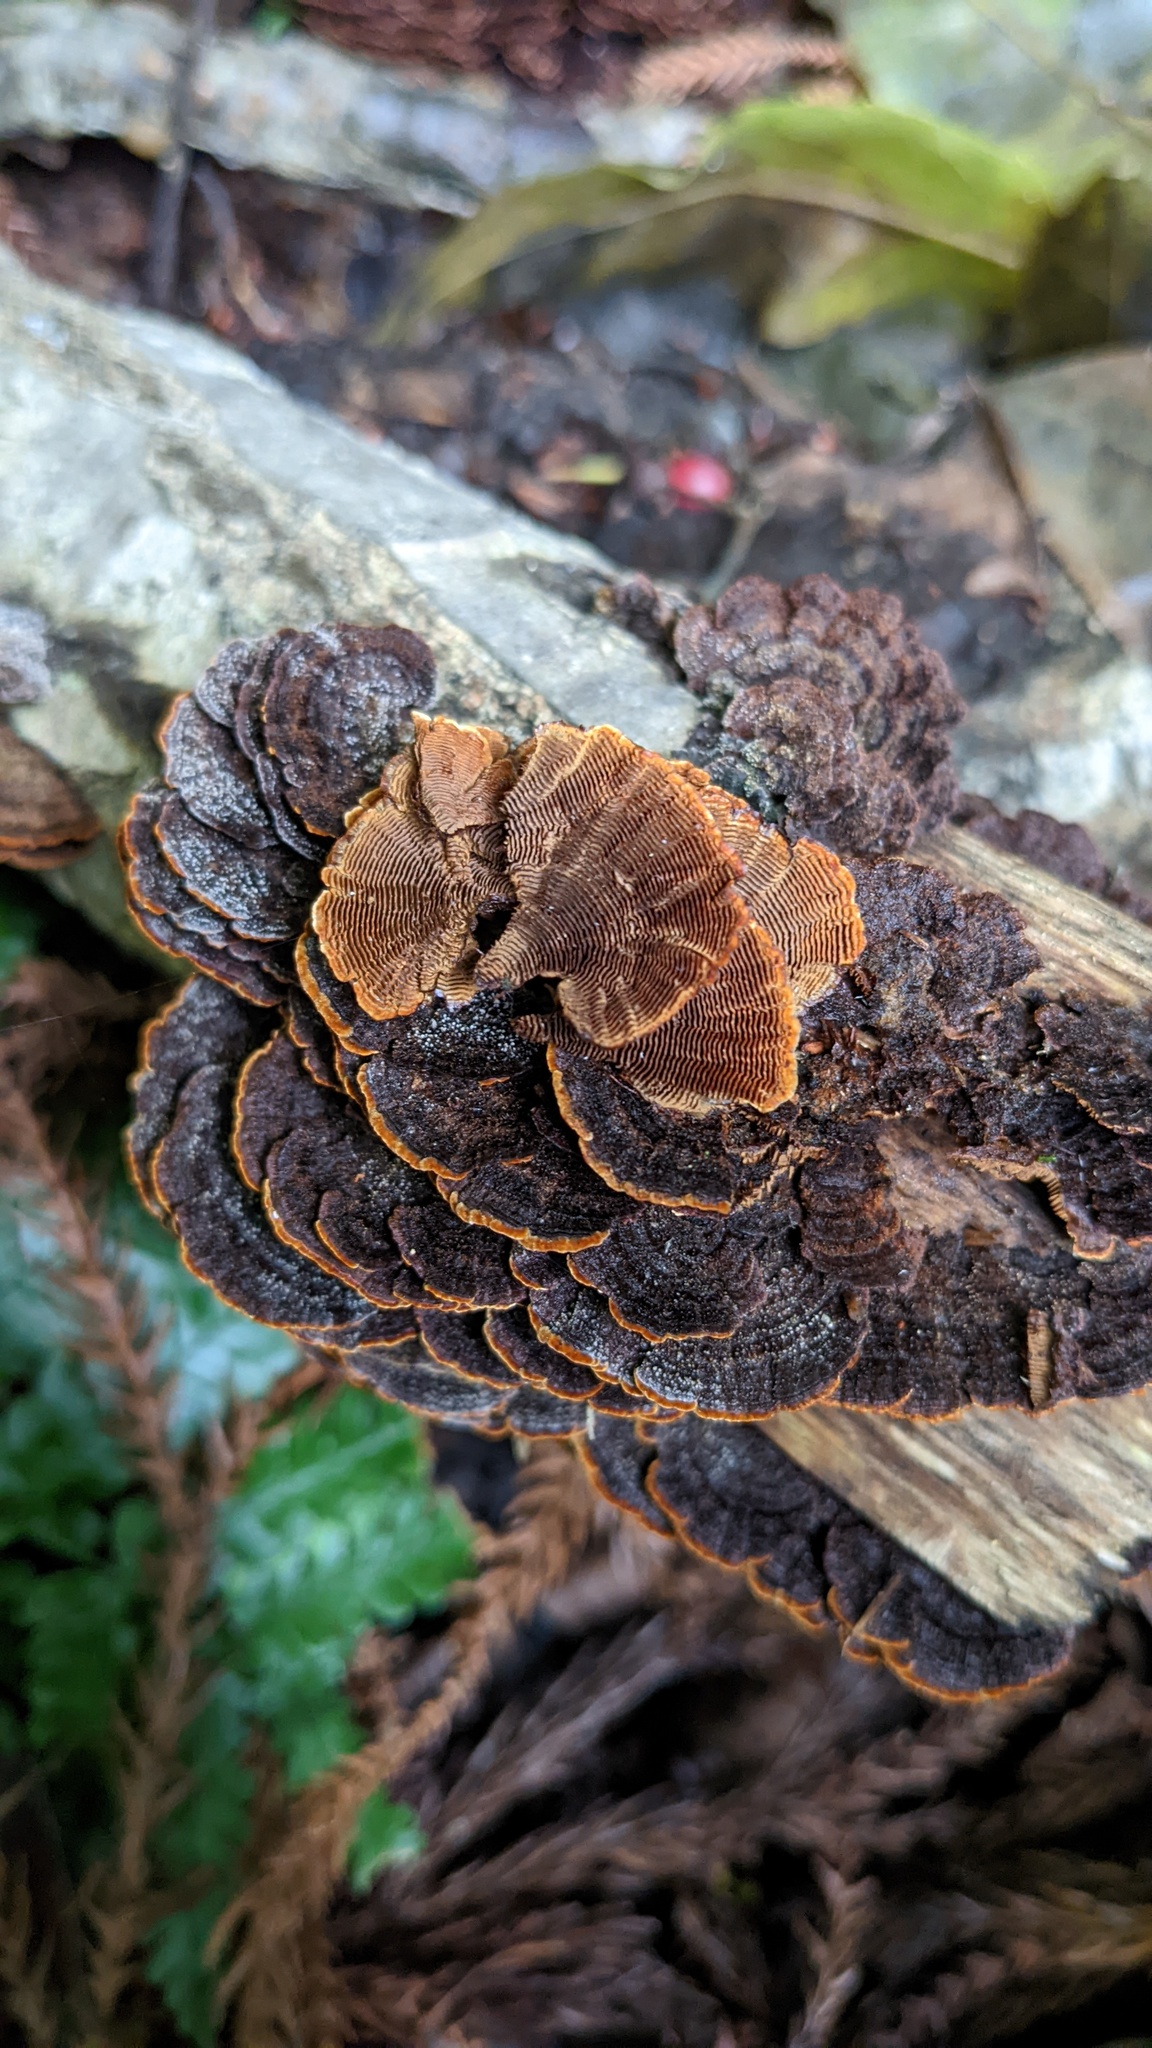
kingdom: Fungi
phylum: Basidiomycota
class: Agaricomycetes
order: Hymenochaetales
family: Hymenochaetaceae
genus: Hymenochaete
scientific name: Hymenochaete cyclolamellata
